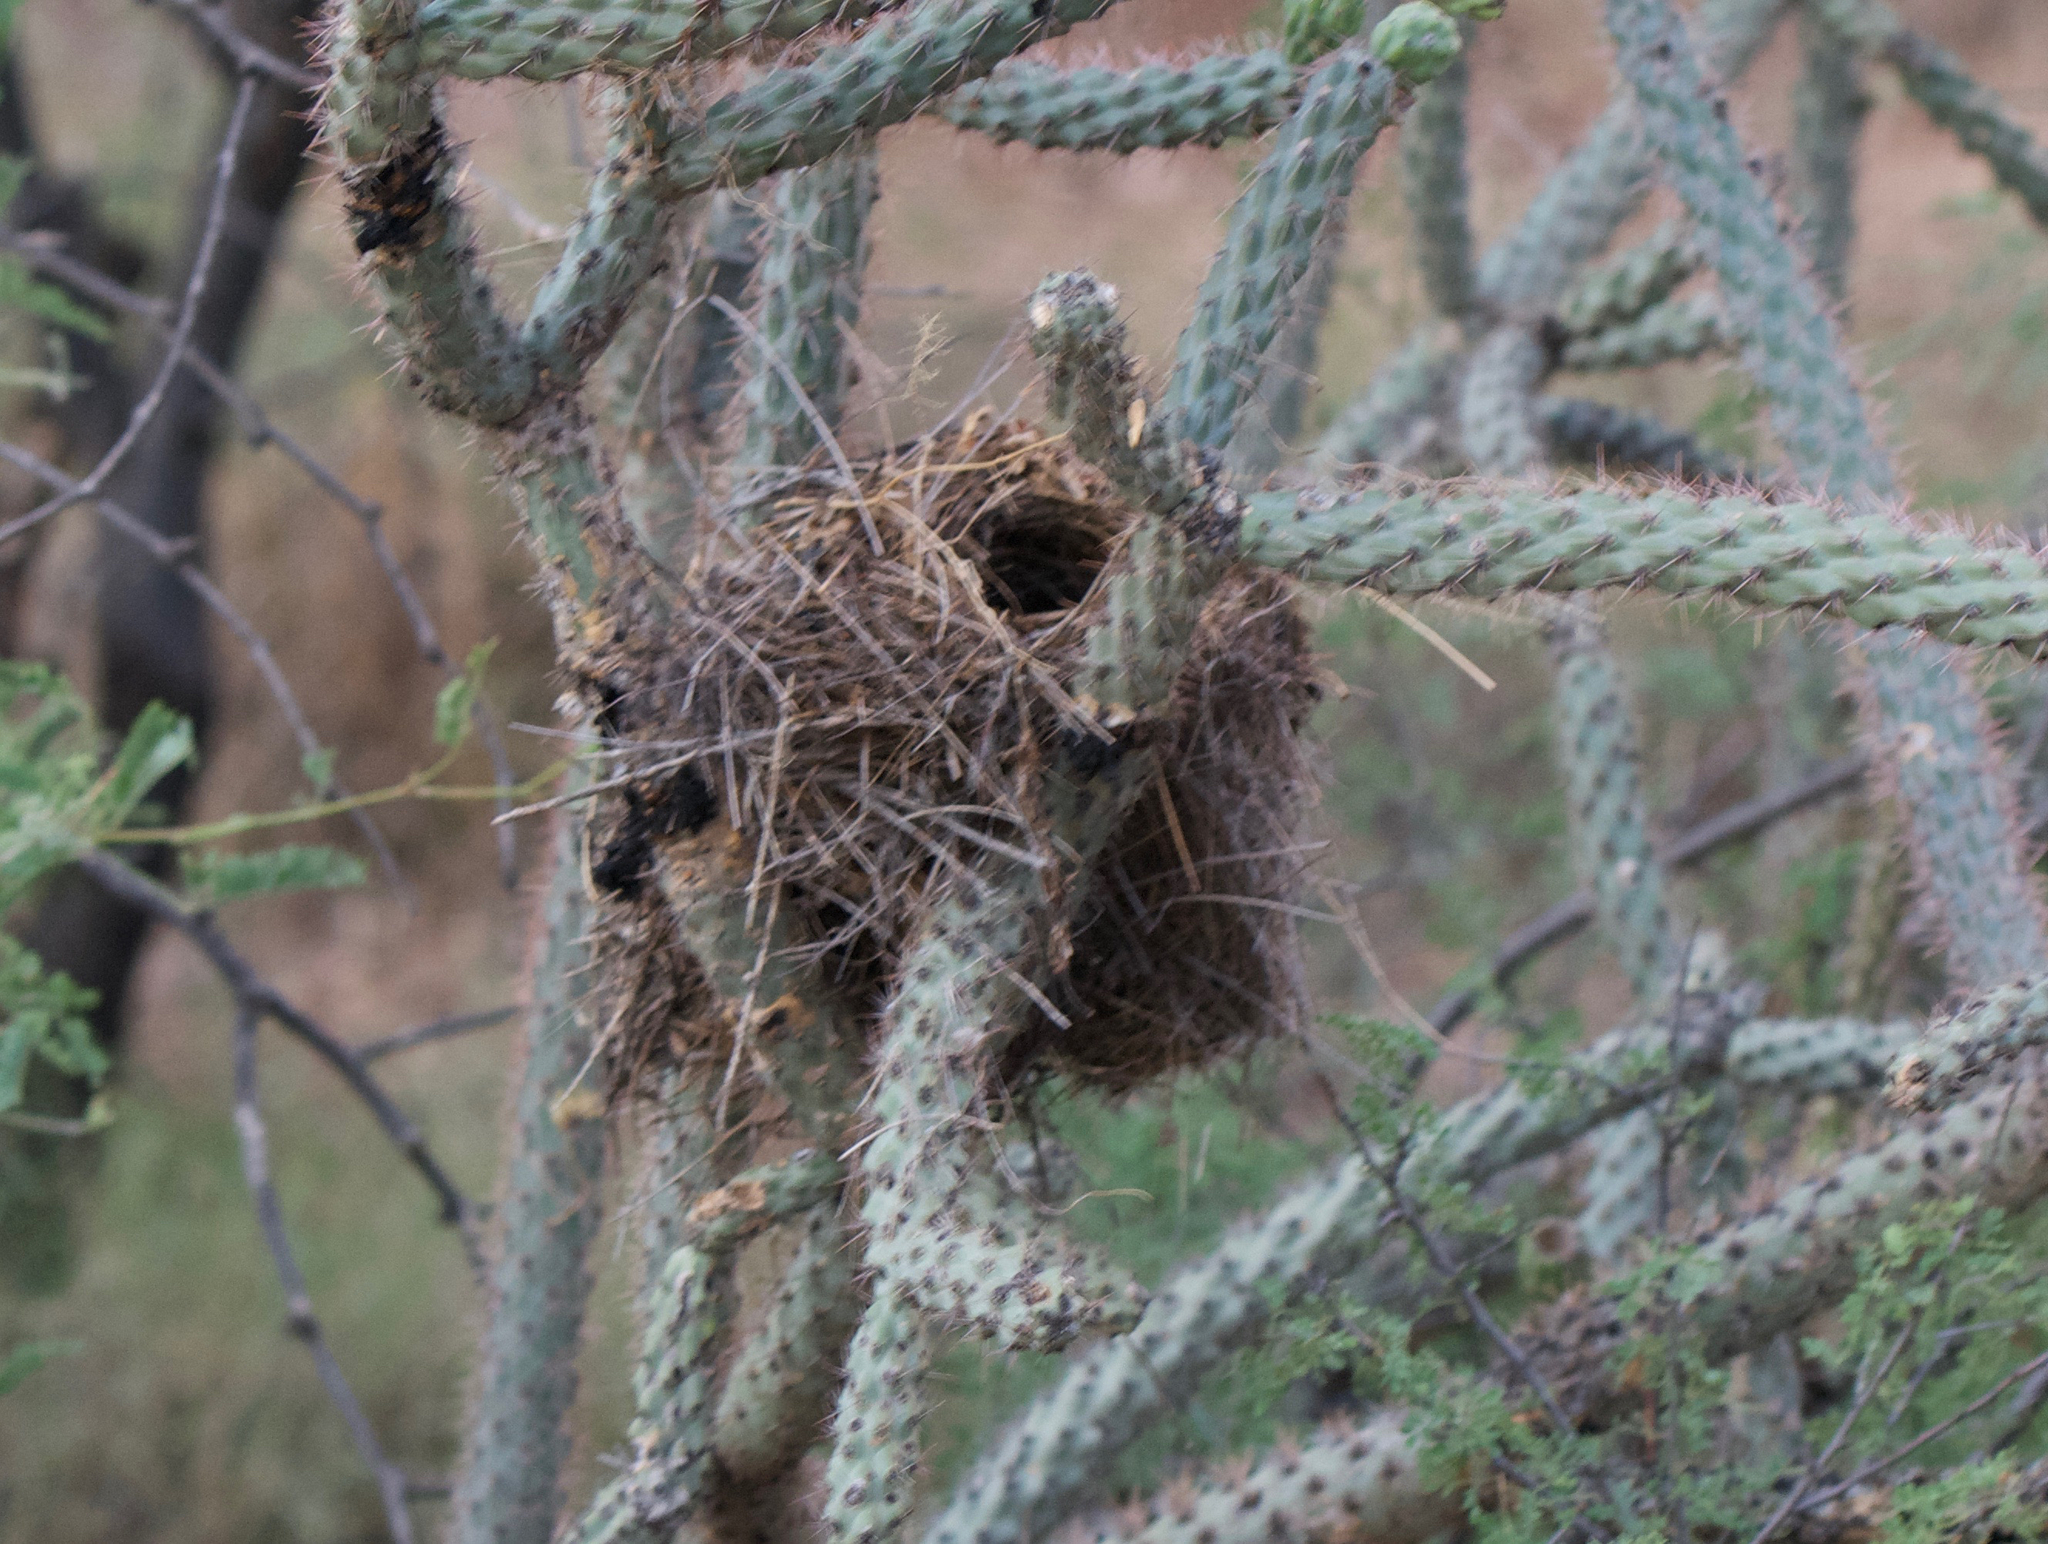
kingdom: Animalia
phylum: Chordata
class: Aves
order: Passeriformes
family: Troglodytidae
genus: Campylorhynchus
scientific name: Campylorhynchus brunneicapillus
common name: Cactus wren
